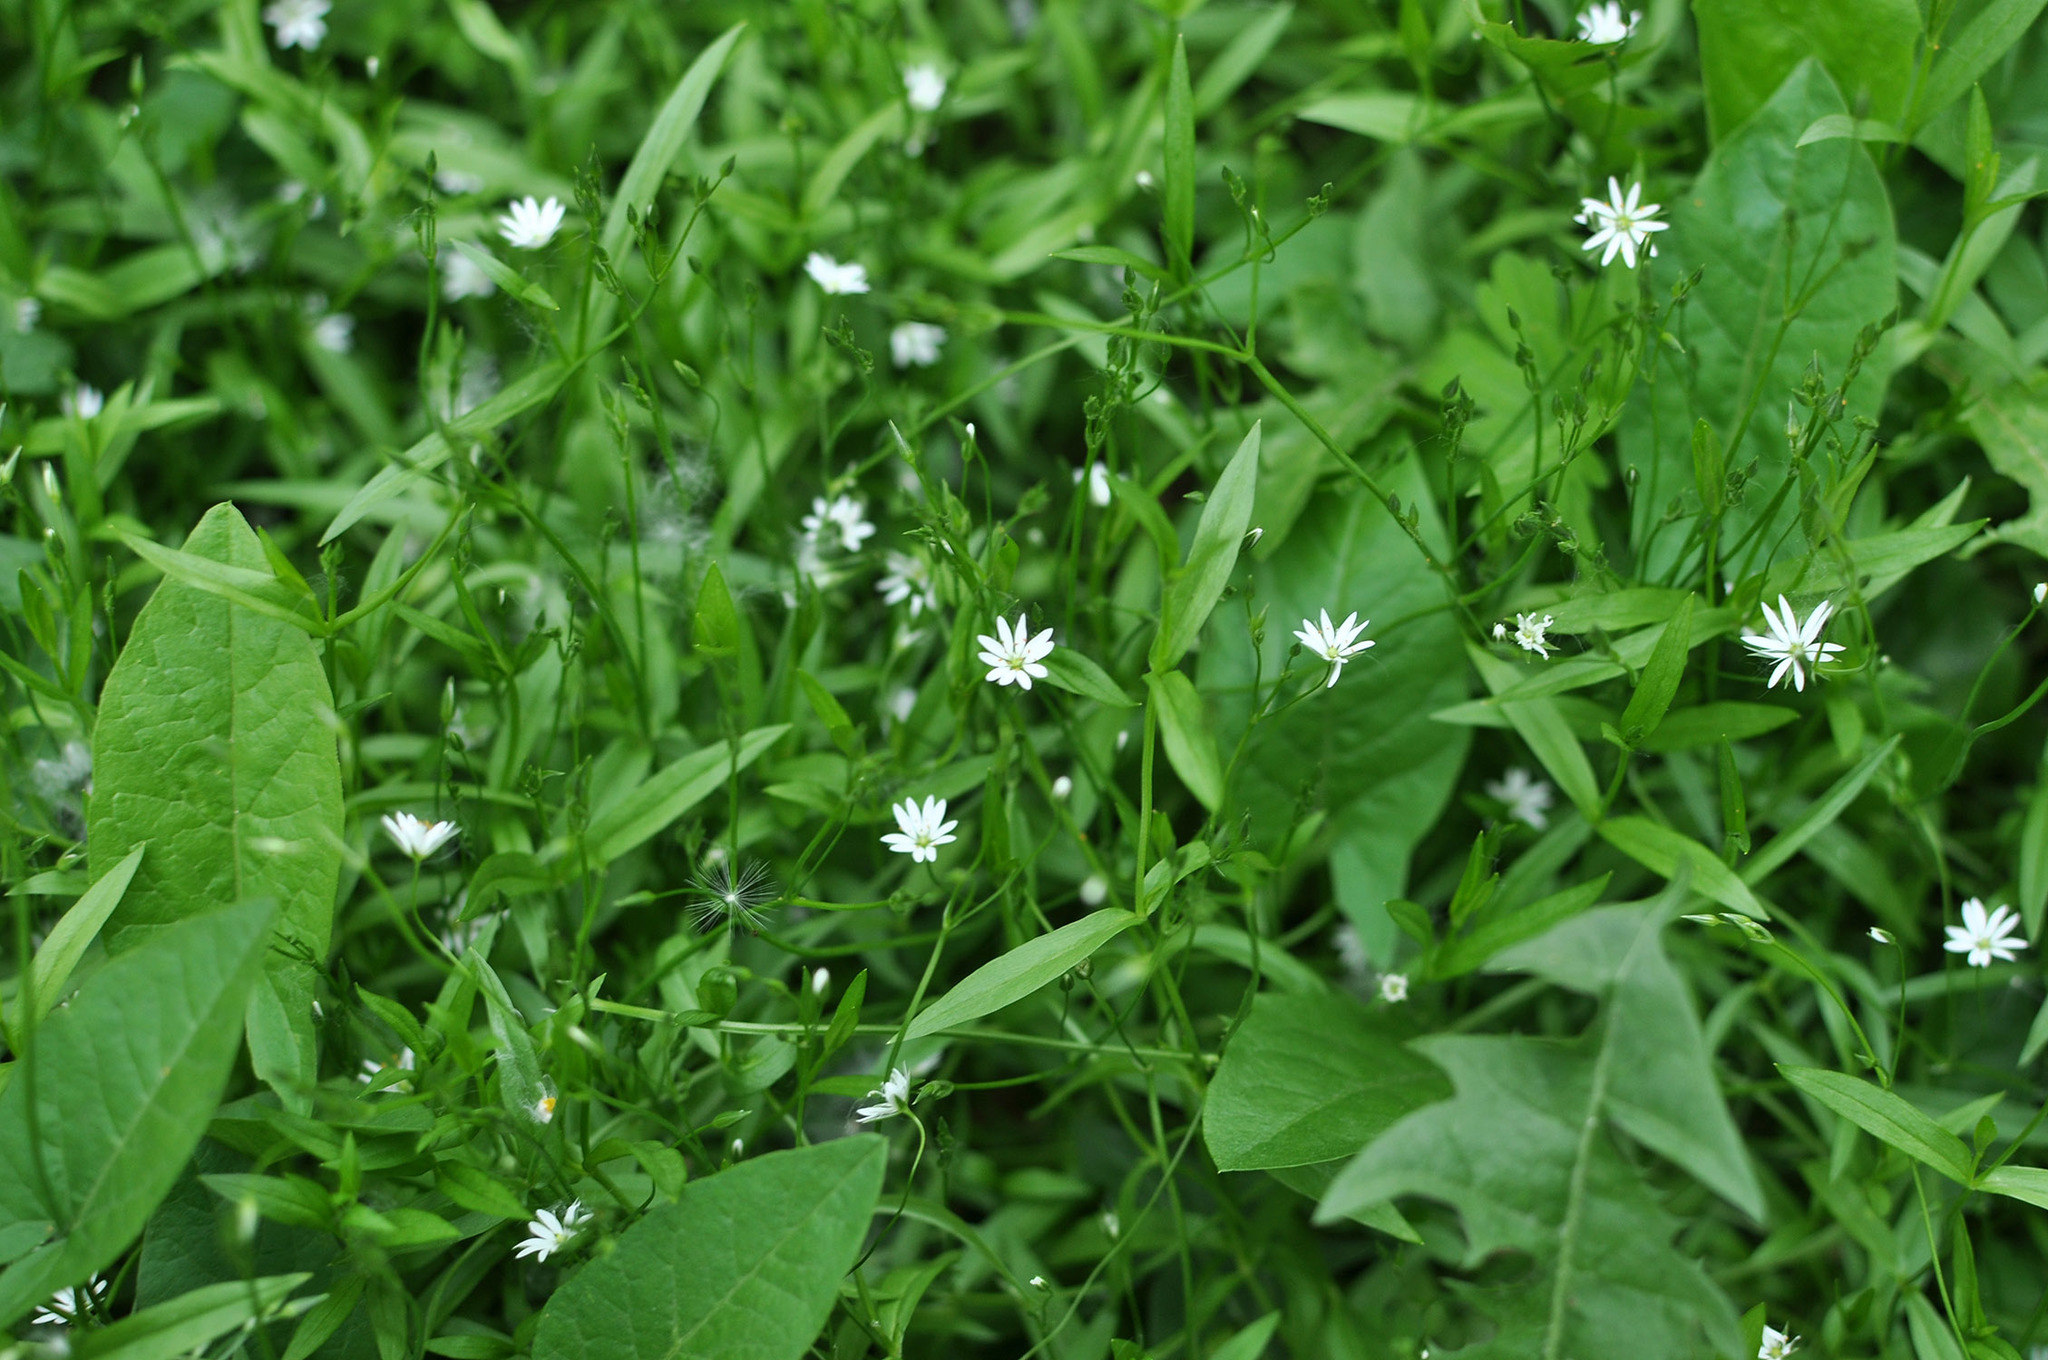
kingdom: Plantae
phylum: Tracheophyta
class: Magnoliopsida
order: Caryophyllales
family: Caryophyllaceae
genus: Stellaria
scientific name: Stellaria graminea
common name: Grass-like starwort
